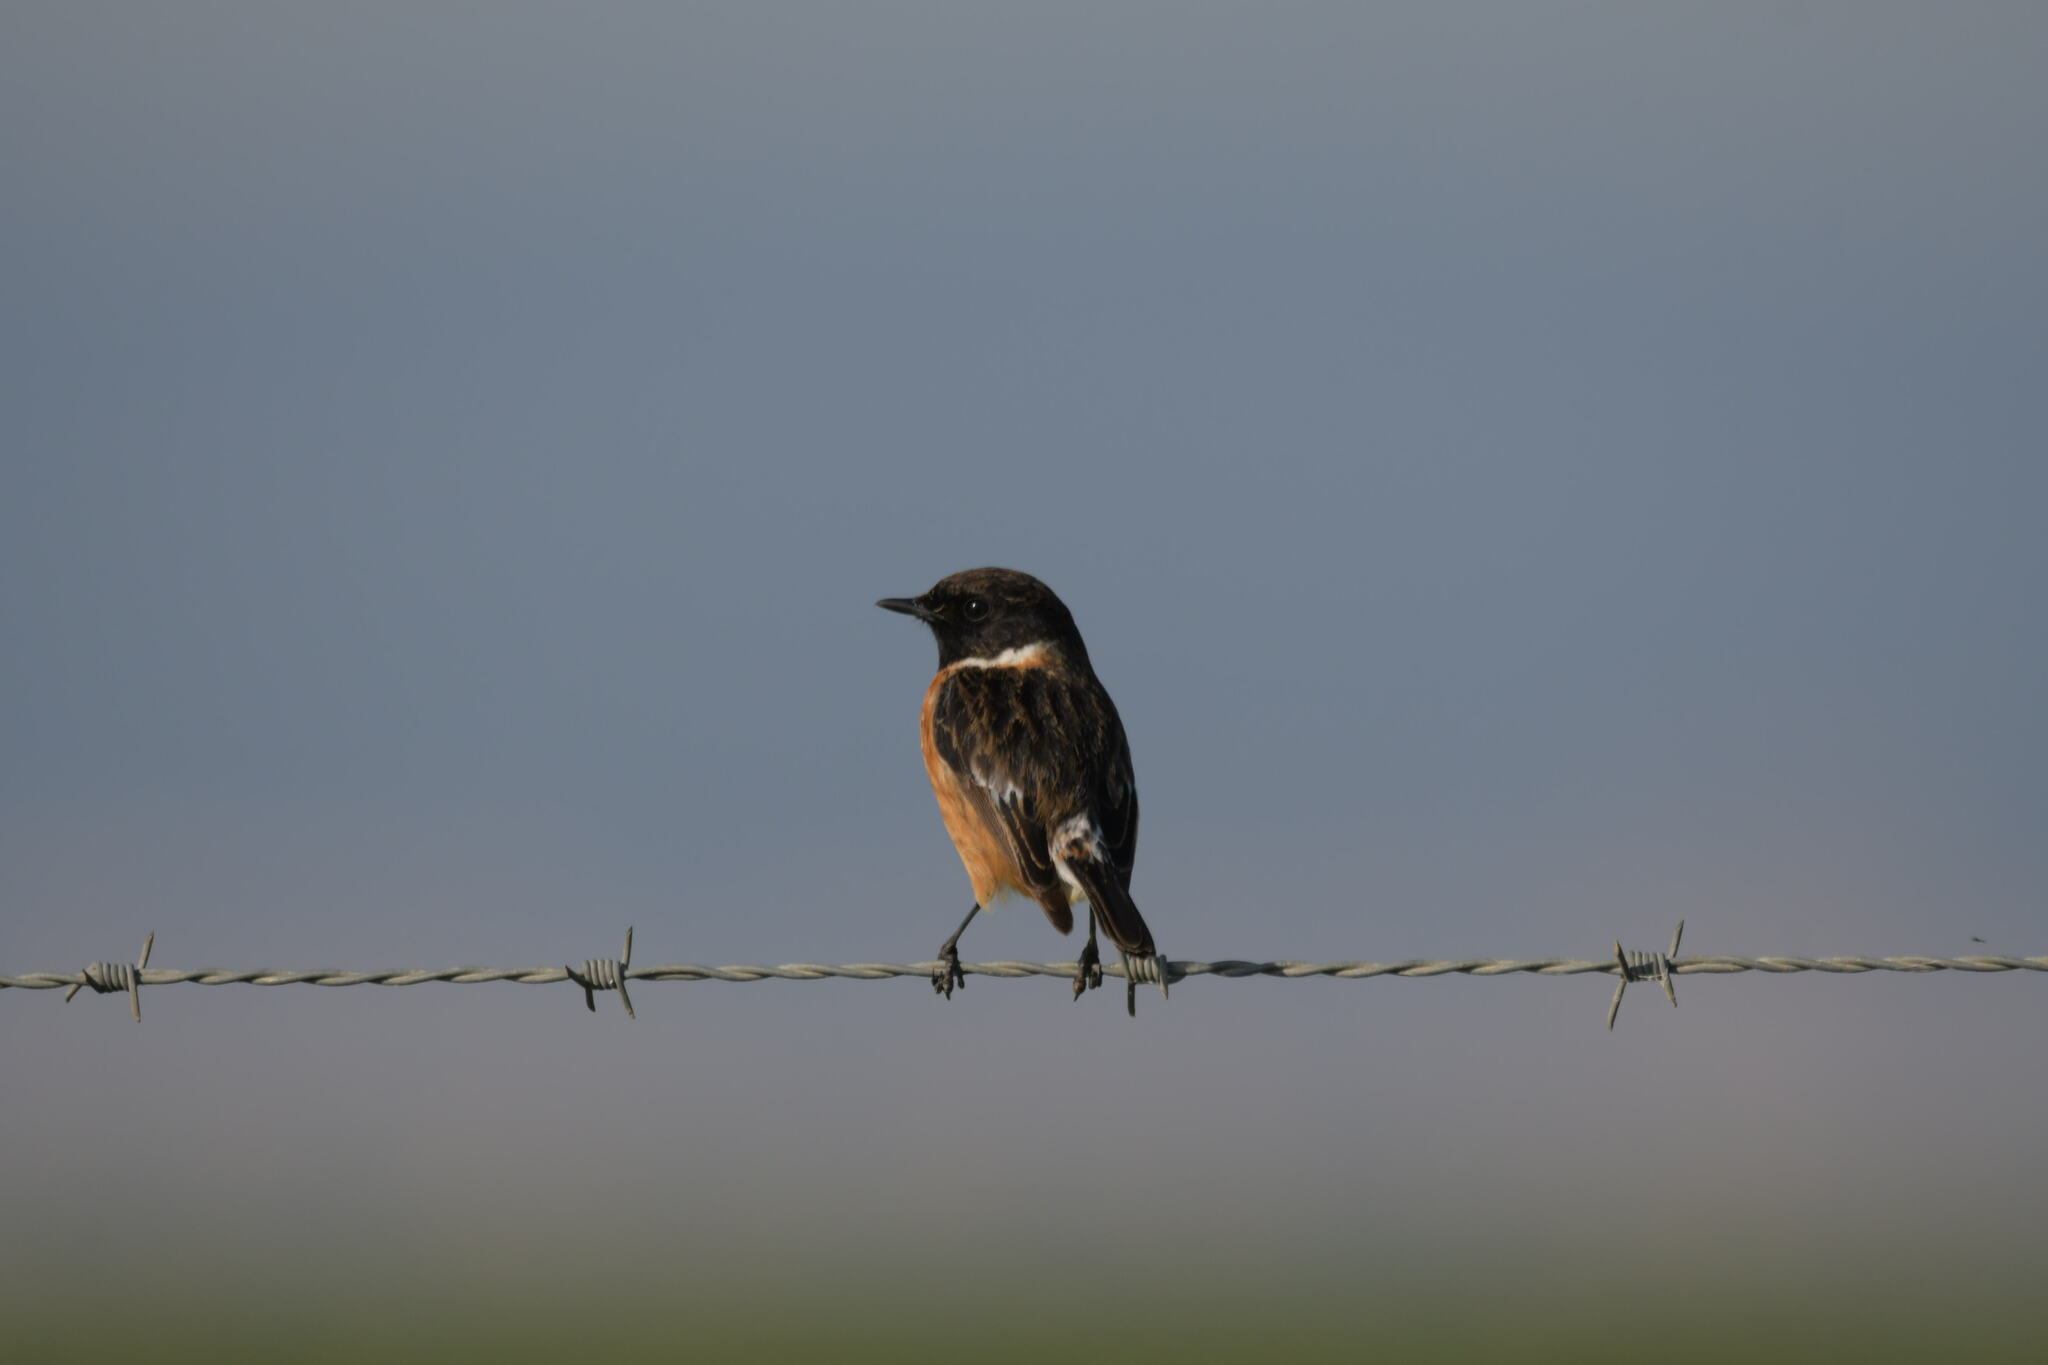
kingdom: Animalia
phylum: Chordata
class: Aves
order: Passeriformes
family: Muscicapidae
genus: Saxicola
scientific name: Saxicola rubicola
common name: European stonechat
